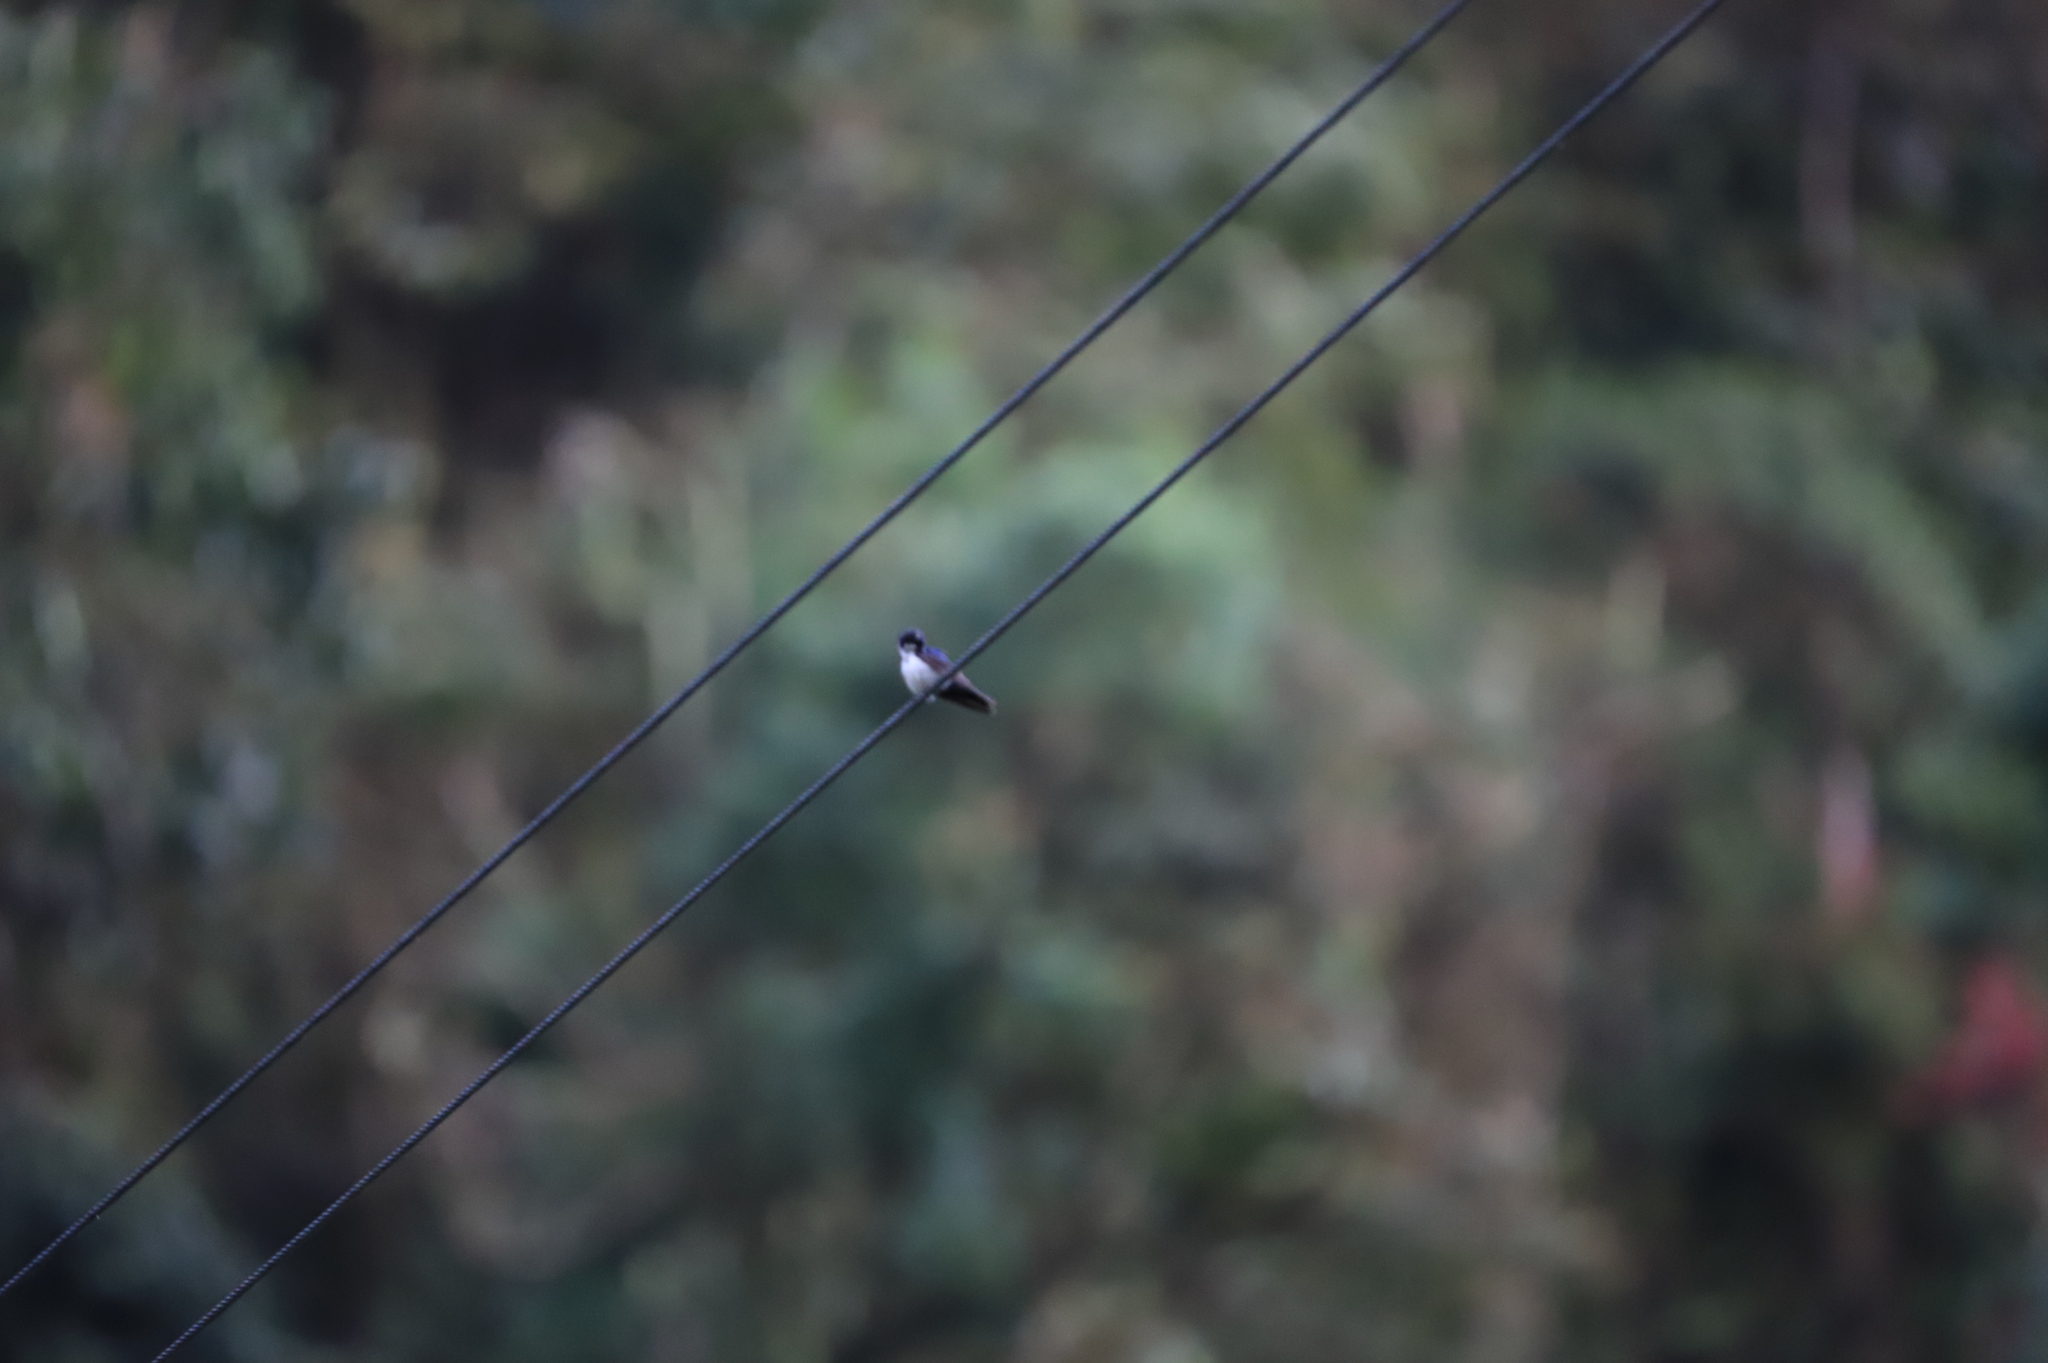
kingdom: Animalia
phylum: Chordata
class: Aves
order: Passeriformes
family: Hirundinidae
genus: Notiochelidon
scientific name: Notiochelidon cyanoleuca
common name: Blue-and-white swallow
